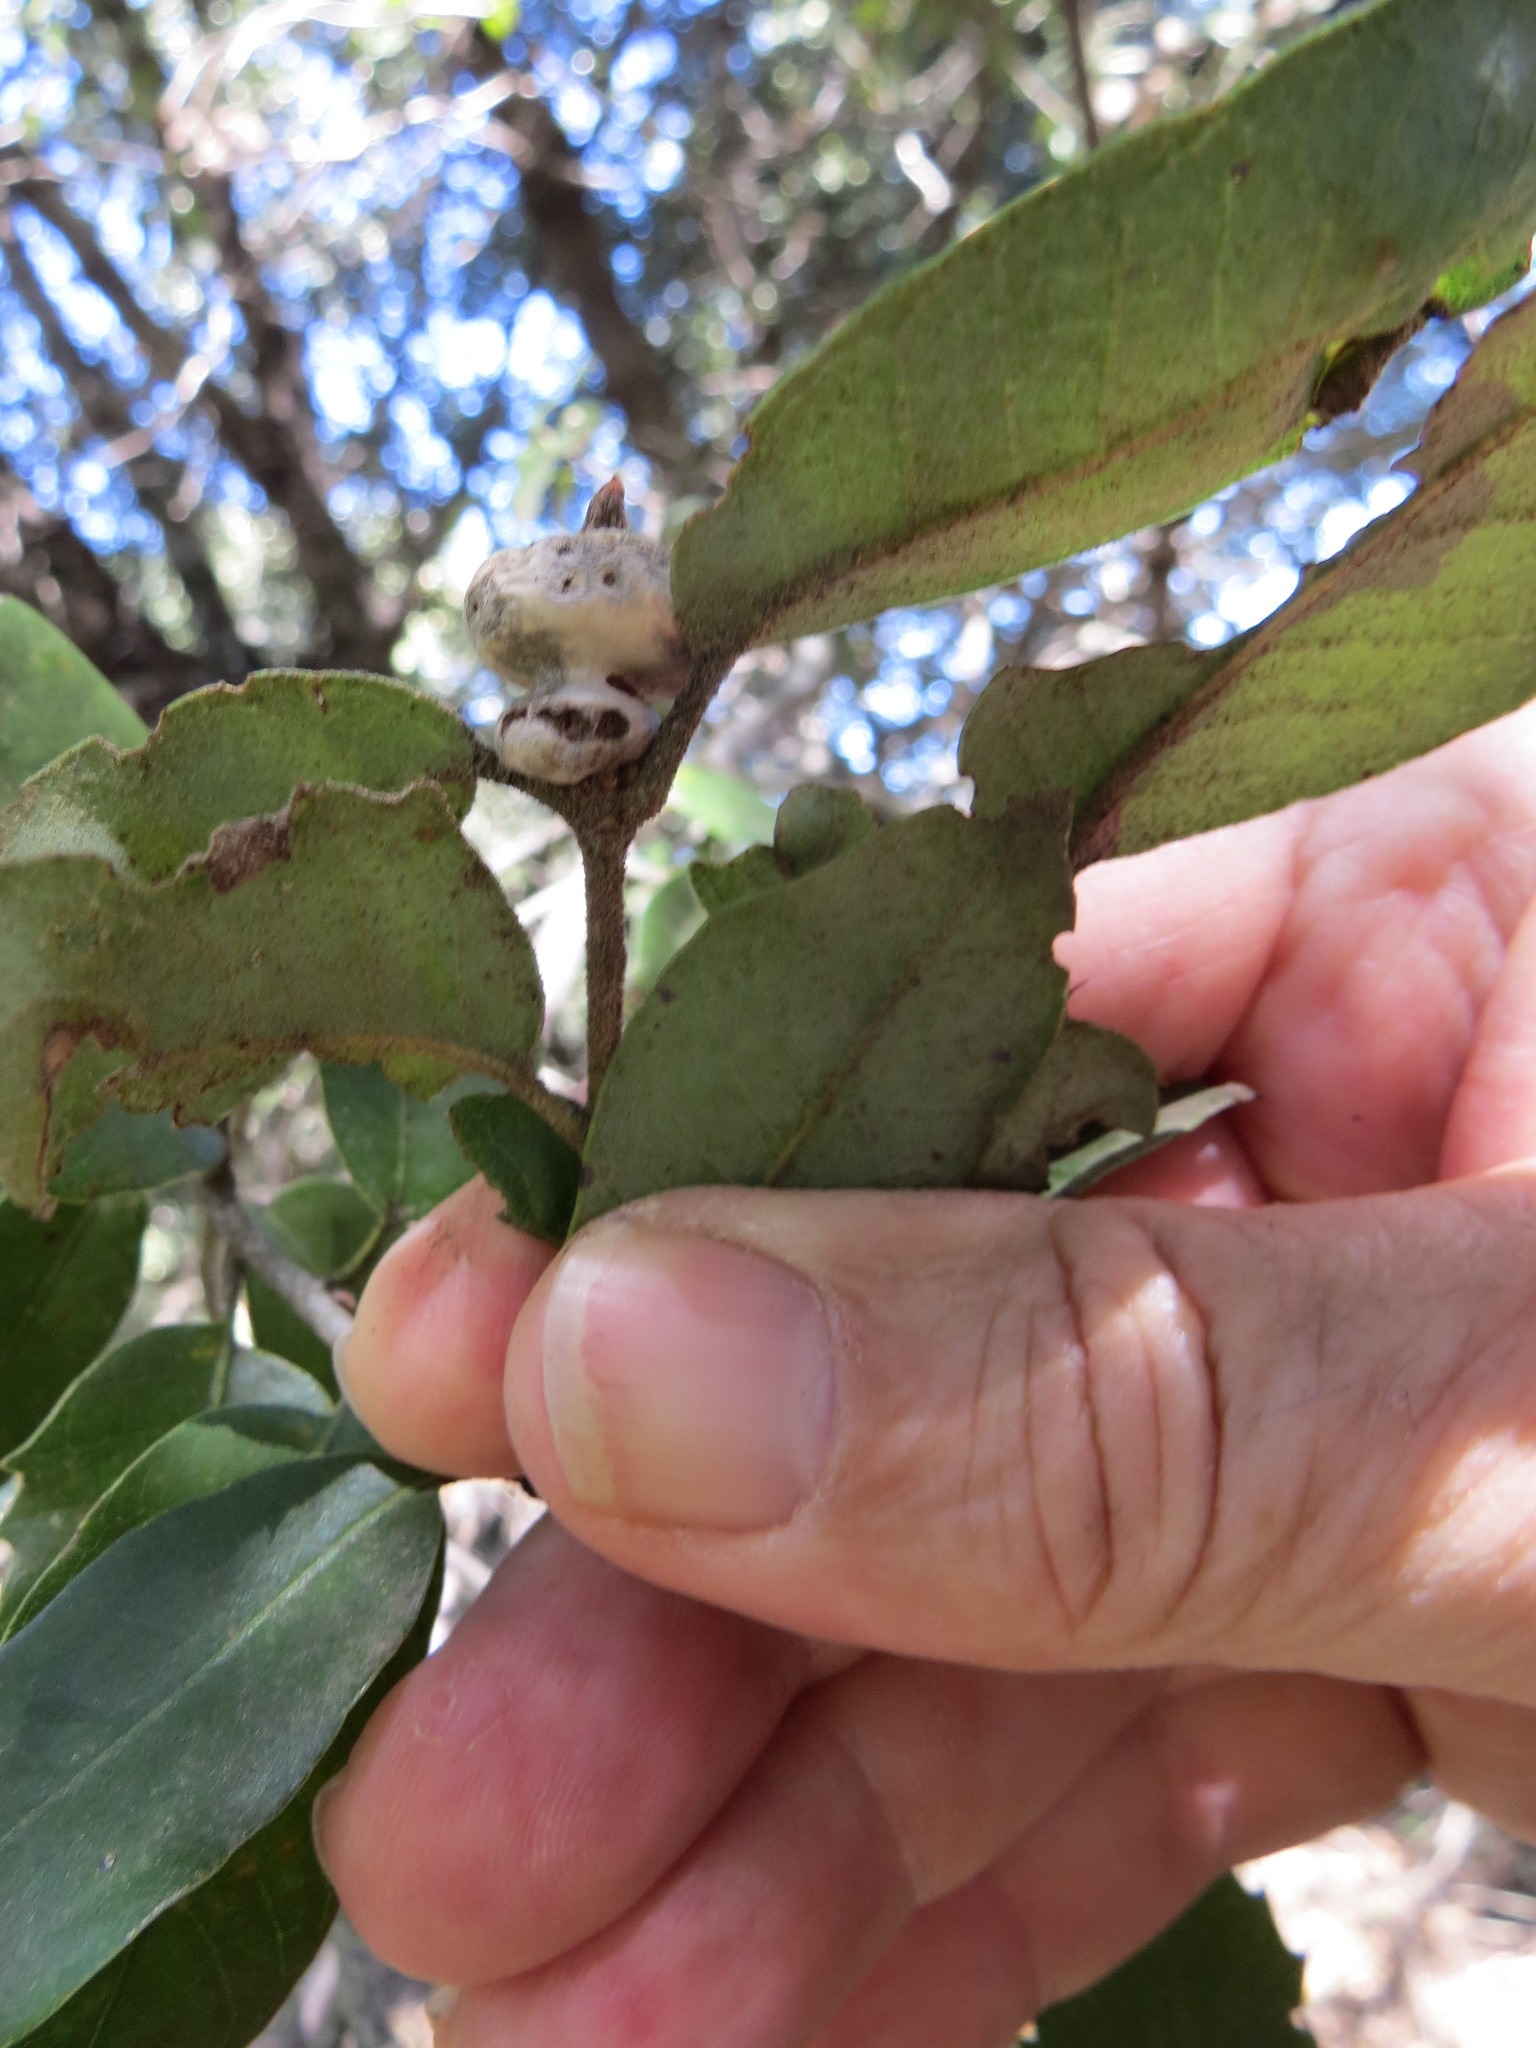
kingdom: Animalia
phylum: Arthropoda
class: Insecta
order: Hymenoptera
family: Cynipidae
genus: Heteroecus
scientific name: Heteroecus
